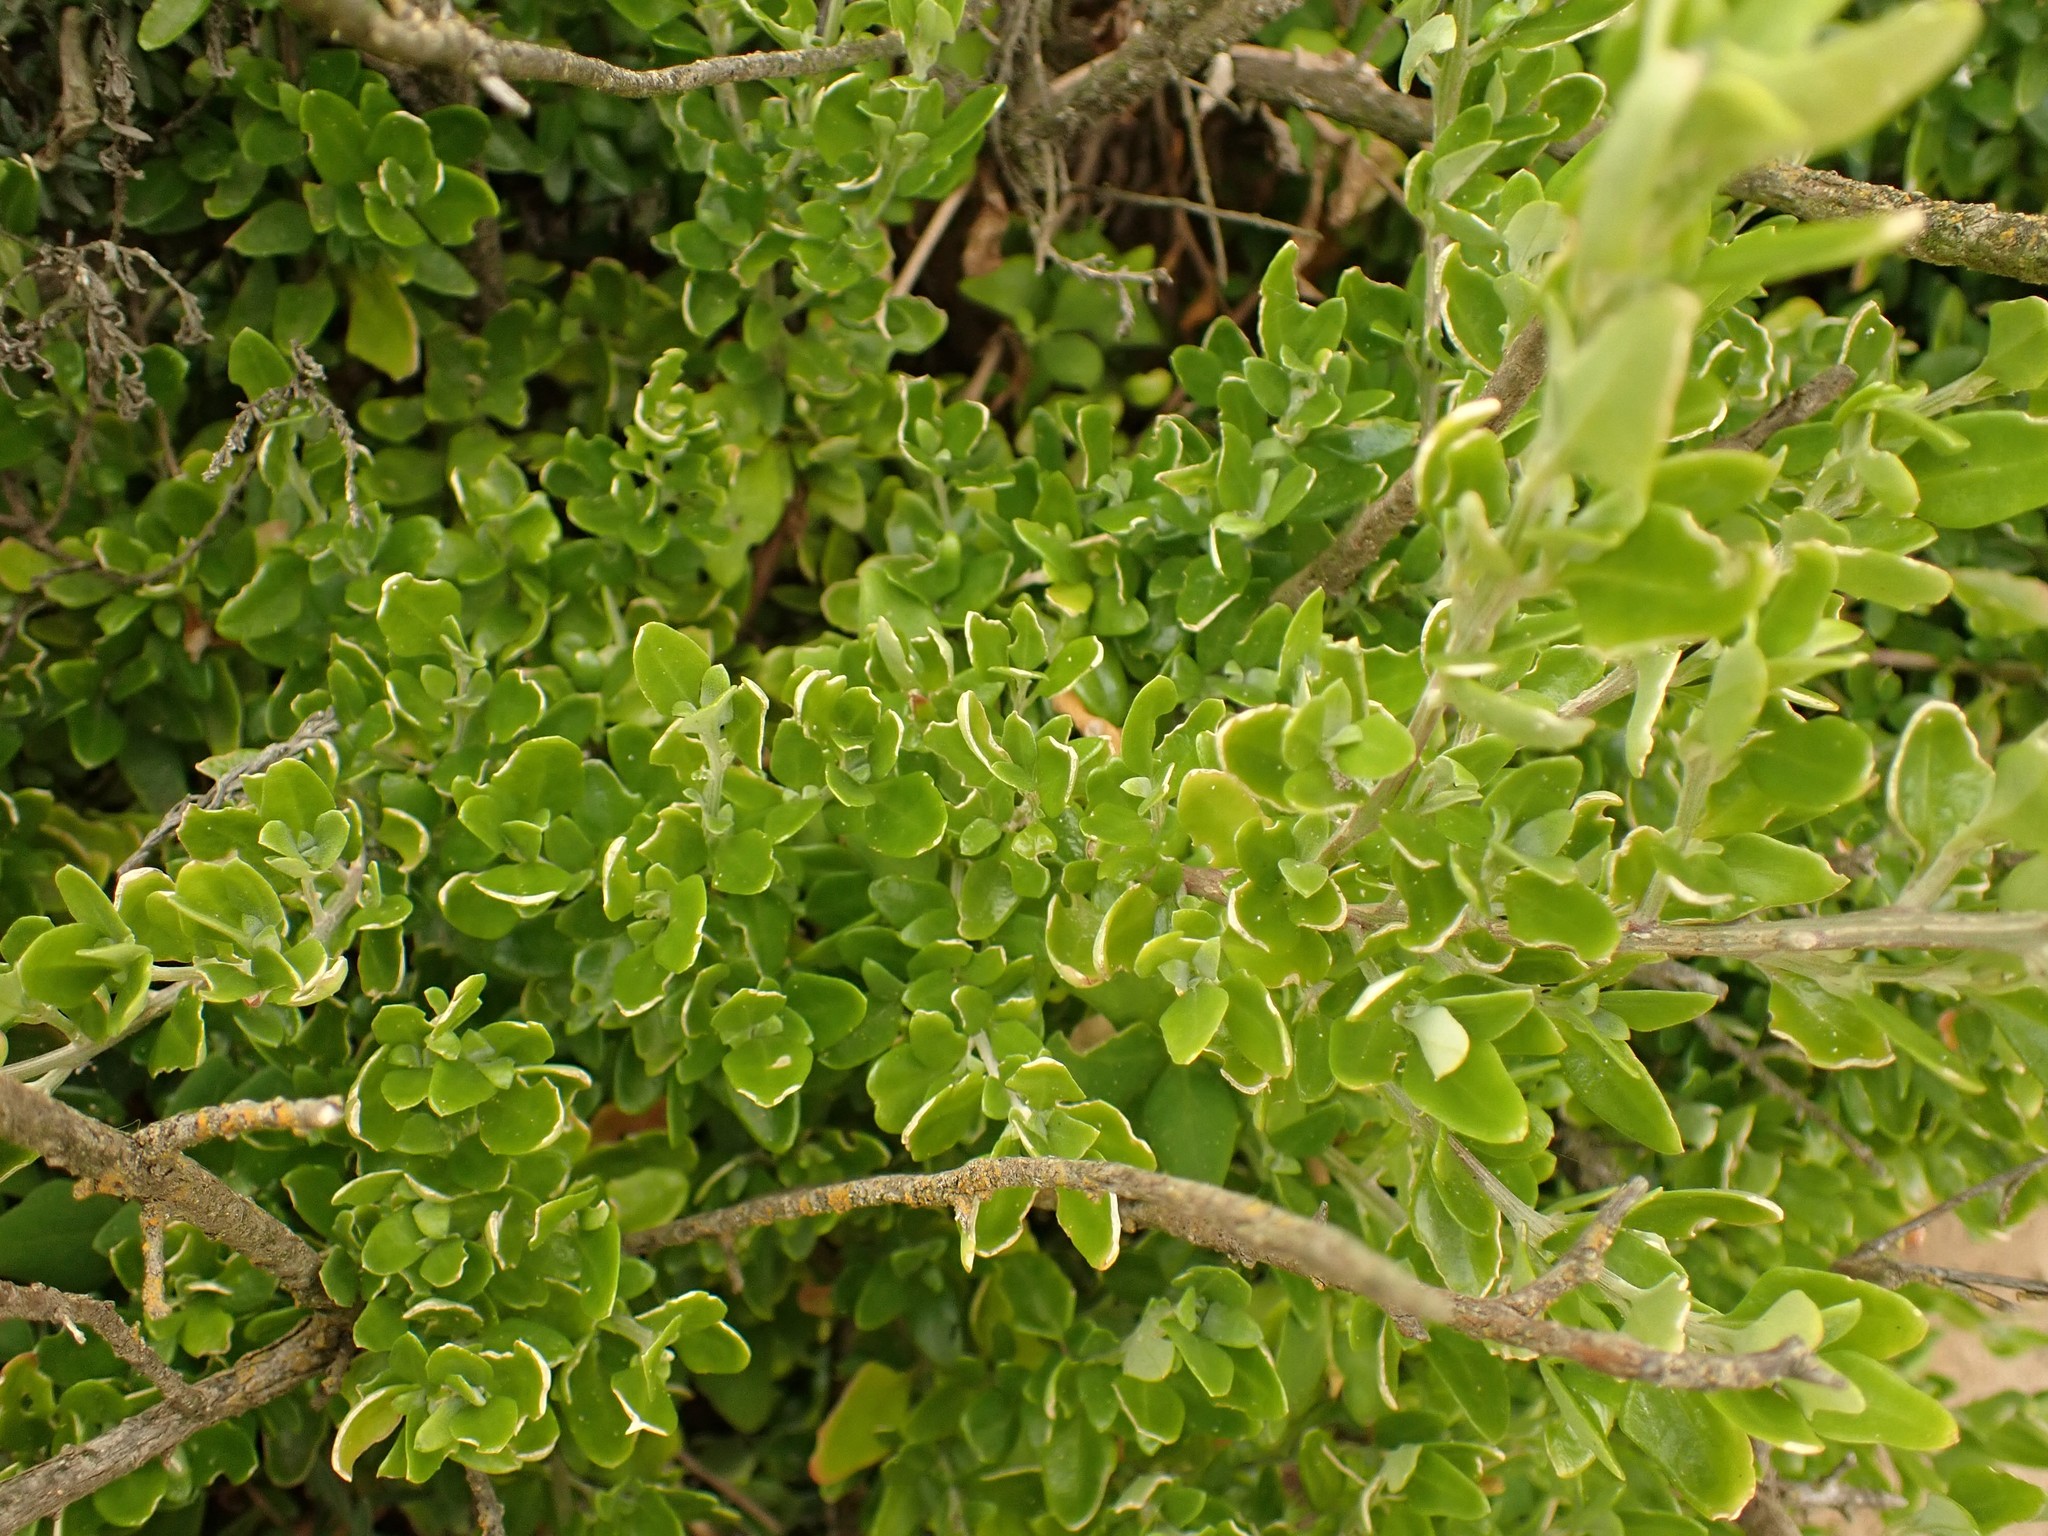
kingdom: Plantae
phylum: Tracheophyta
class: Magnoliopsida
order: Caryophyllales
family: Amaranthaceae
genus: Chenopodium
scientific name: Chenopodium candolleanum
